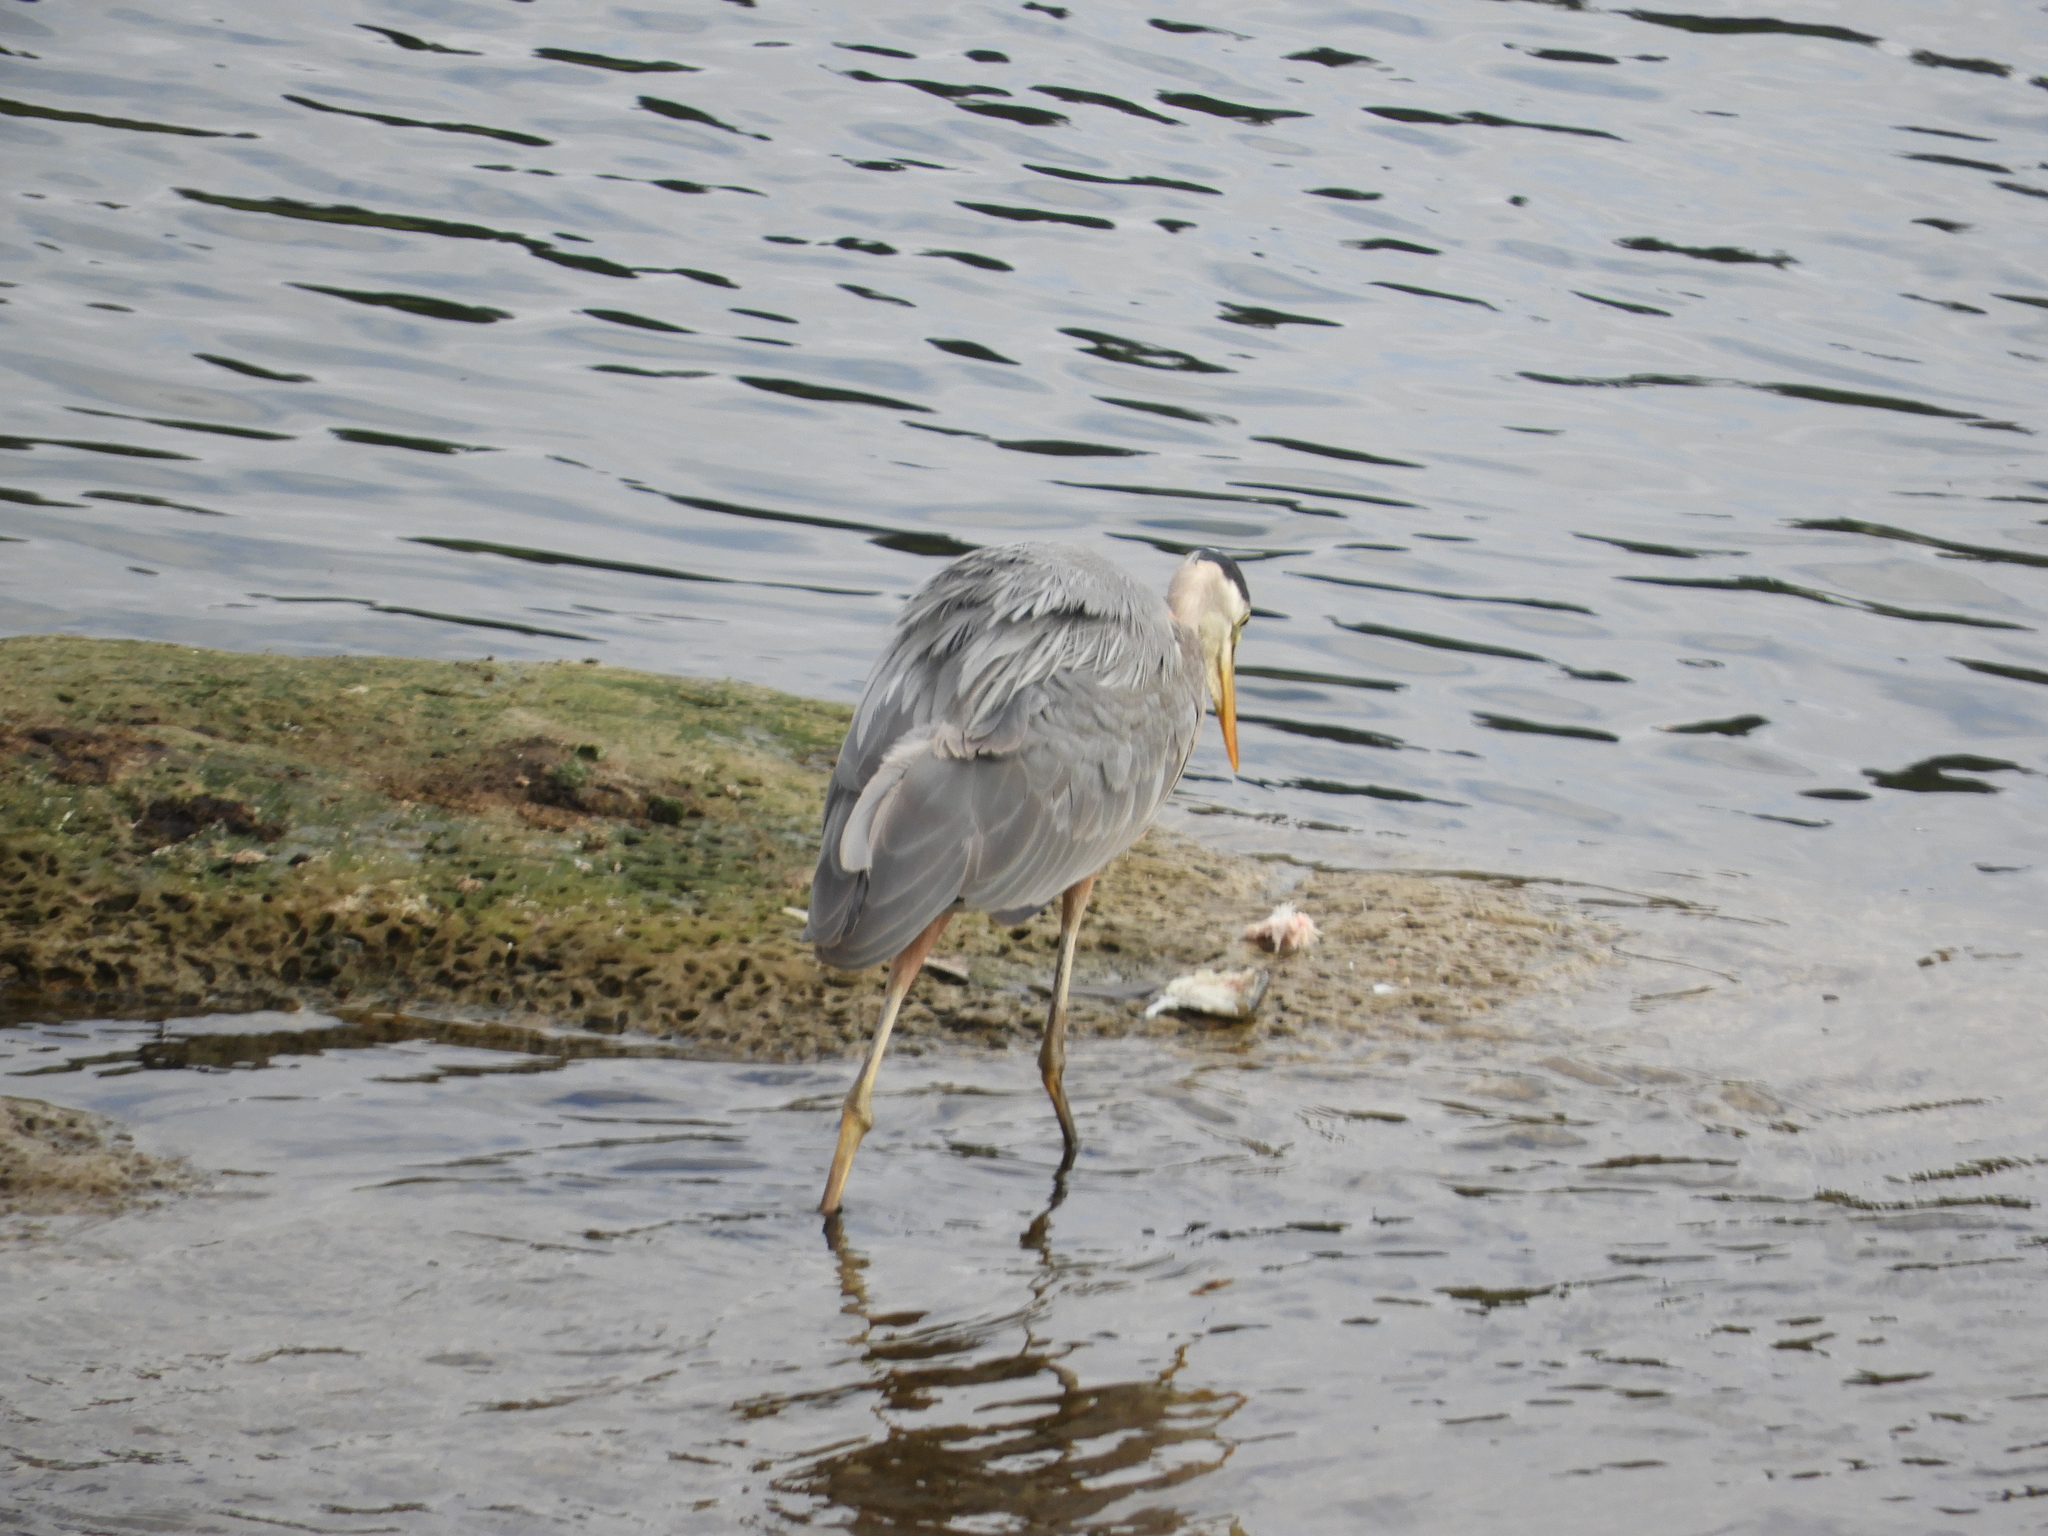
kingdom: Animalia
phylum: Chordata
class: Aves
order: Pelecaniformes
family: Ardeidae
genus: Ardea
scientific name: Ardea herodias
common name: Great blue heron
